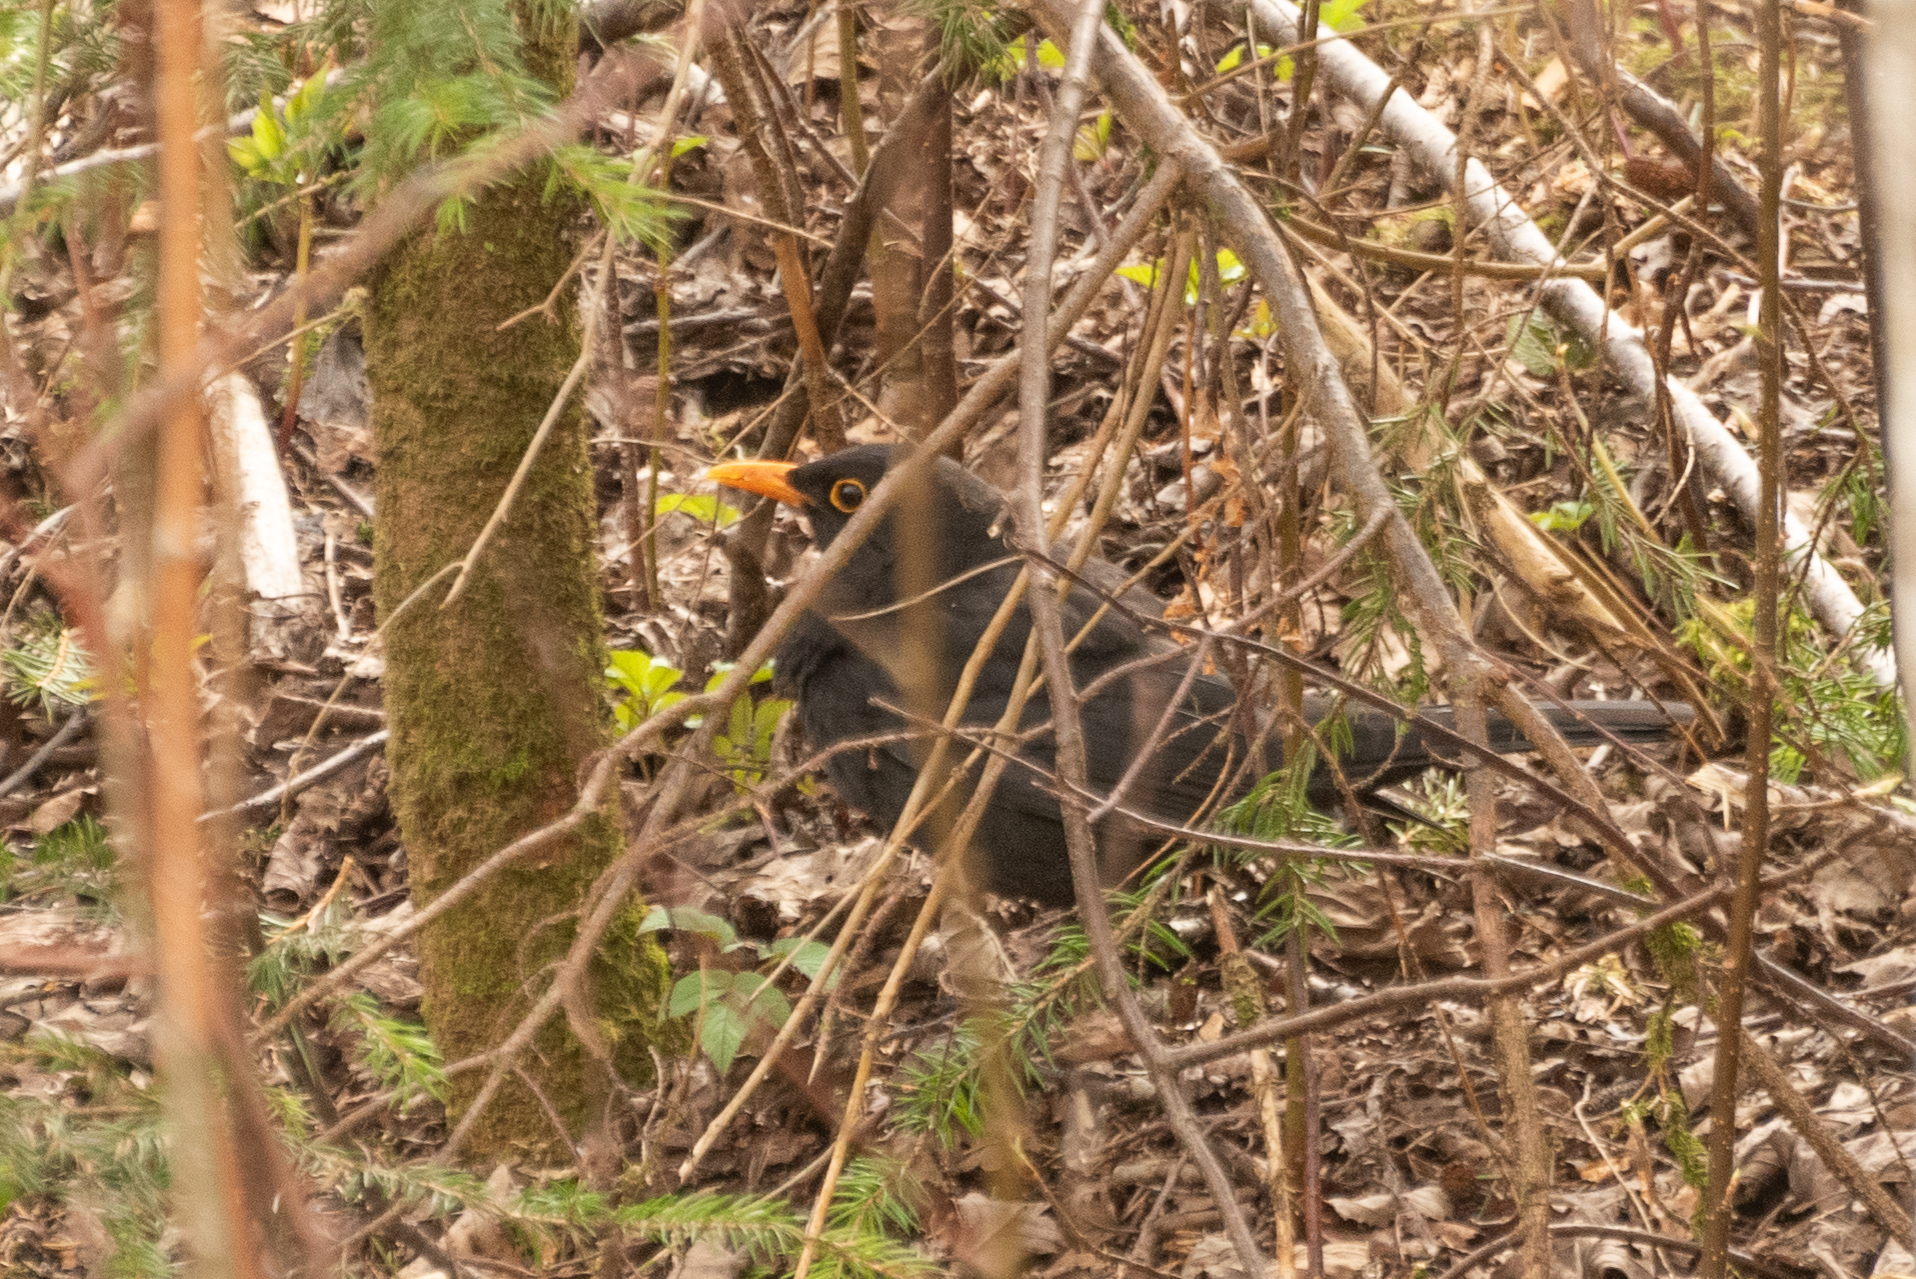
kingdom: Animalia
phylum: Chordata
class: Aves
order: Passeriformes
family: Turdidae
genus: Turdus
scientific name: Turdus merula
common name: Common blackbird
